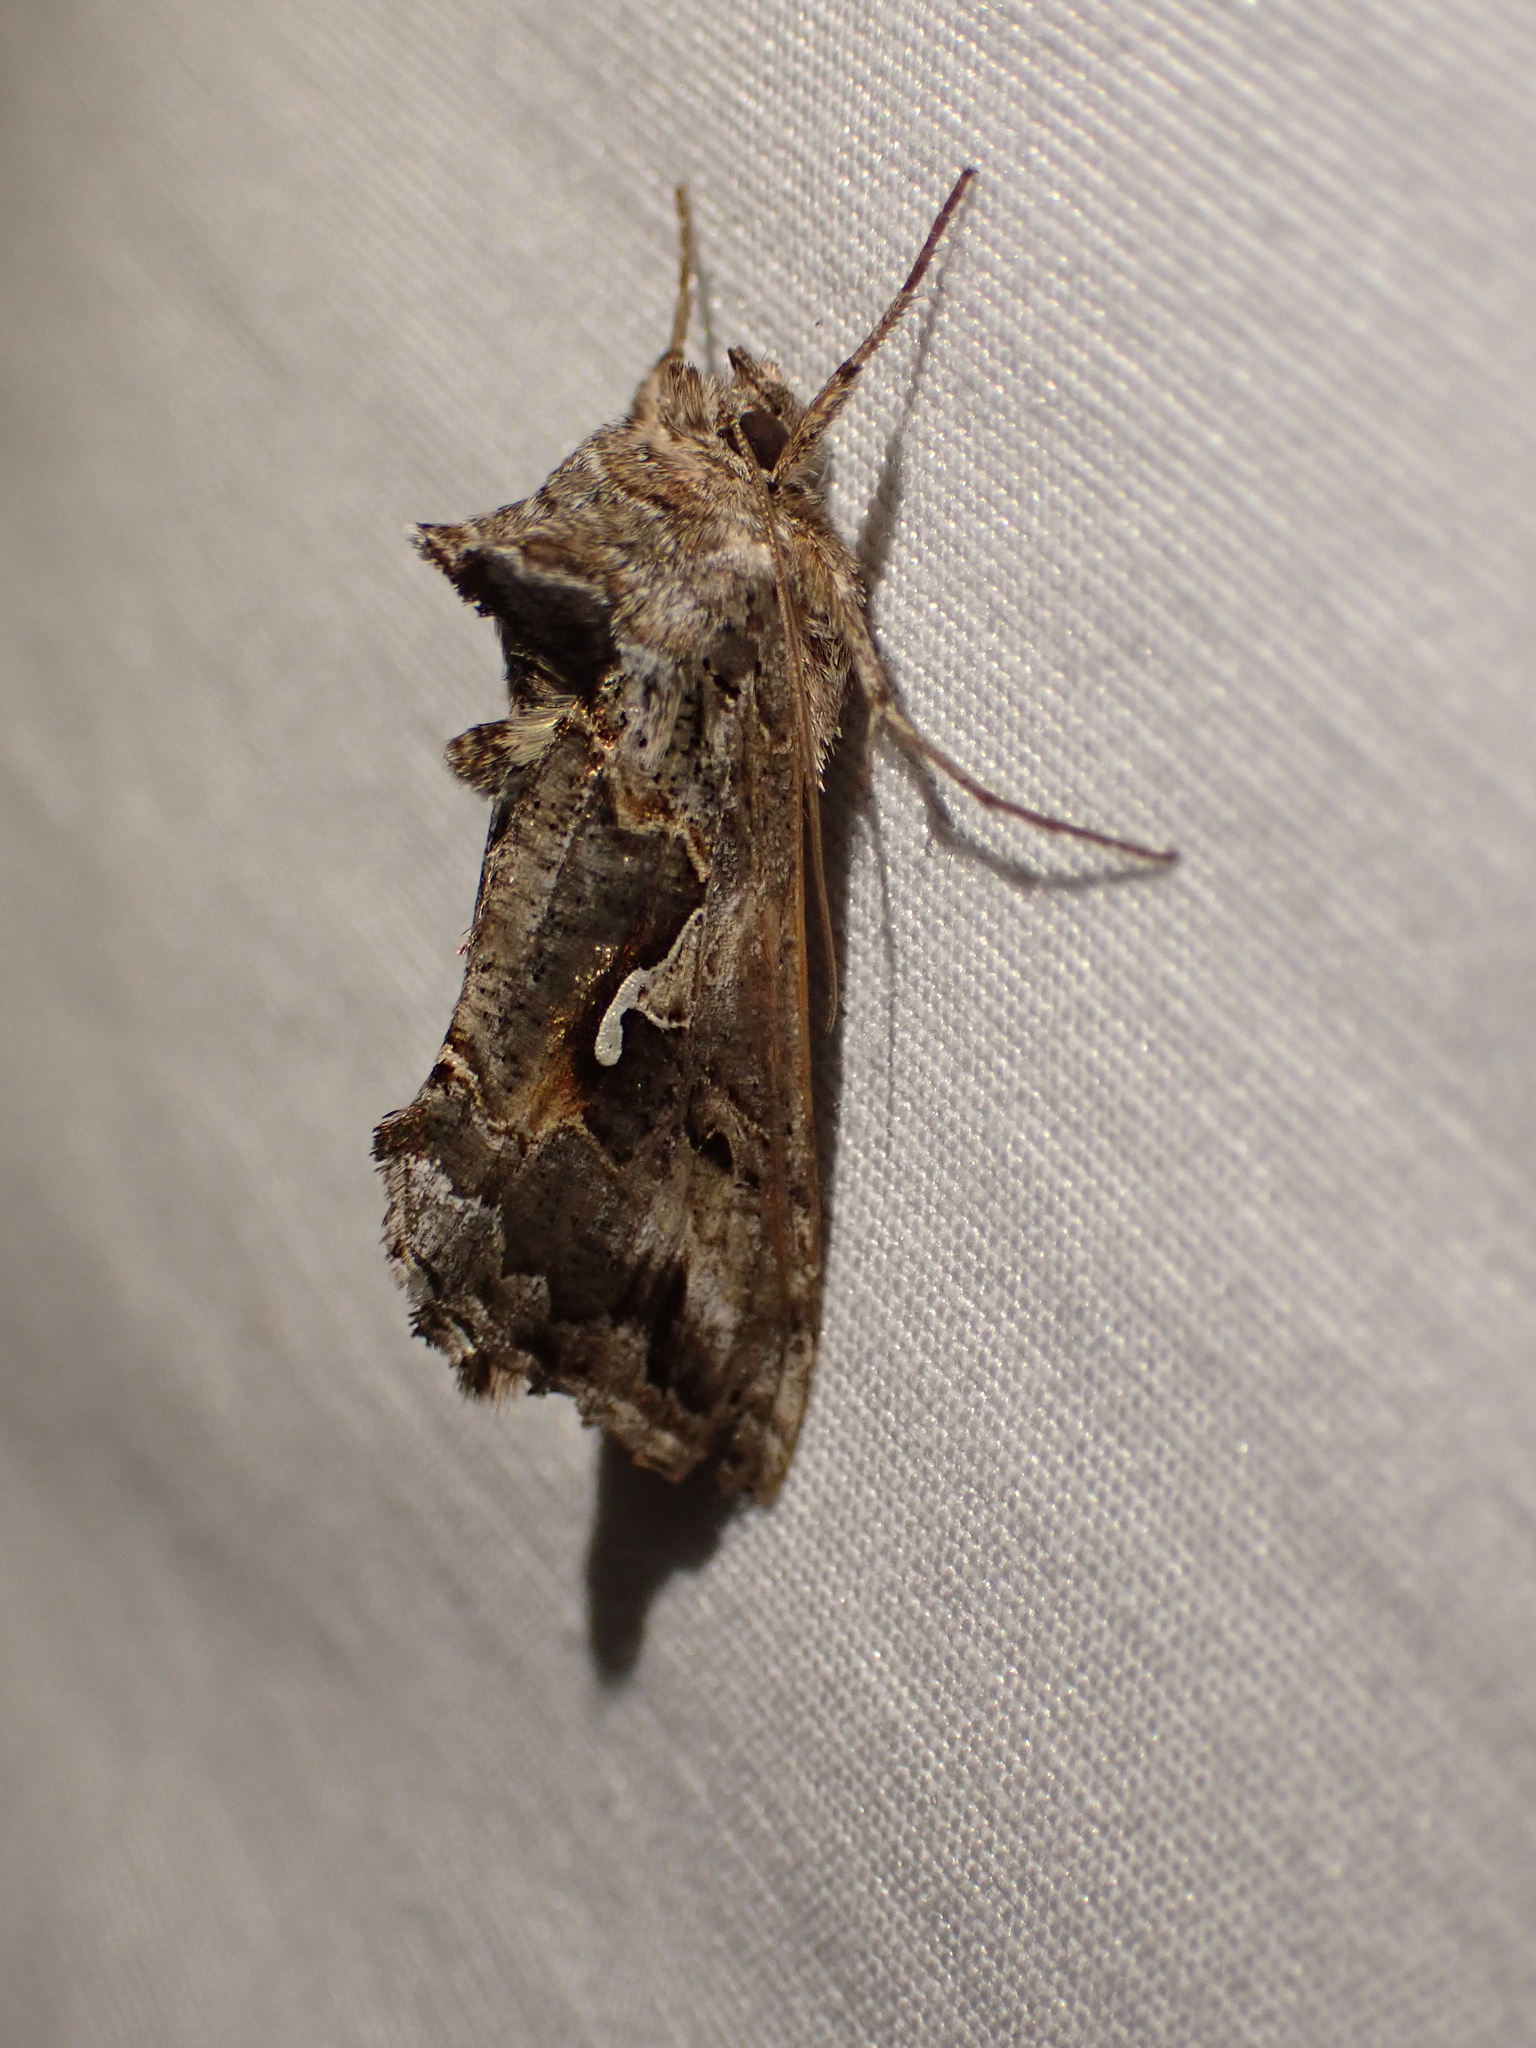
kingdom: Animalia
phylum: Arthropoda
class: Insecta
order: Lepidoptera
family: Noctuidae
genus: Autographa
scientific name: Autographa californica
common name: Alfalfa looper
